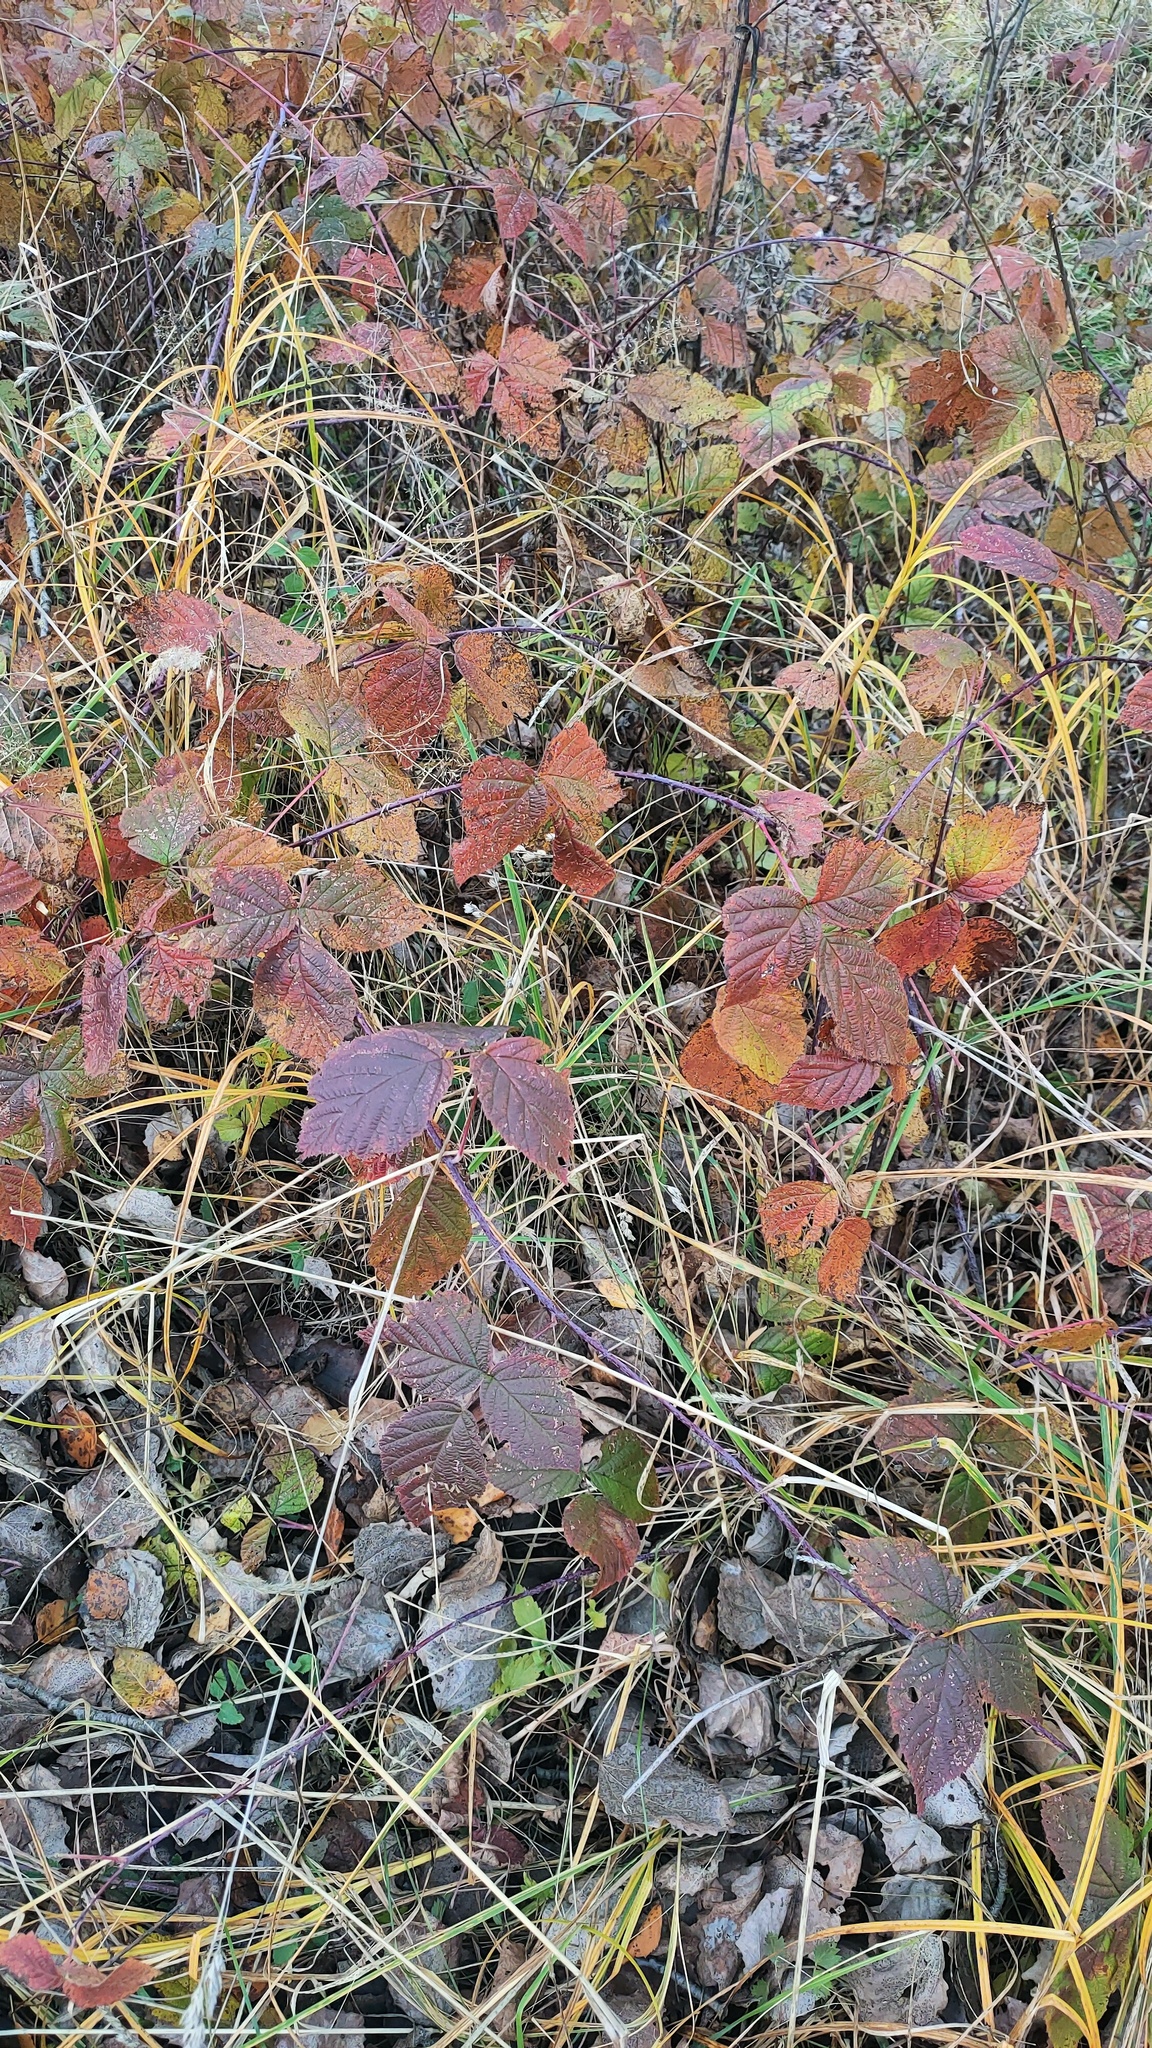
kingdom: Plantae
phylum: Tracheophyta
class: Magnoliopsida
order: Rosales
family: Rosaceae
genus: Rubus
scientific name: Rubus caesius
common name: Dewberry
